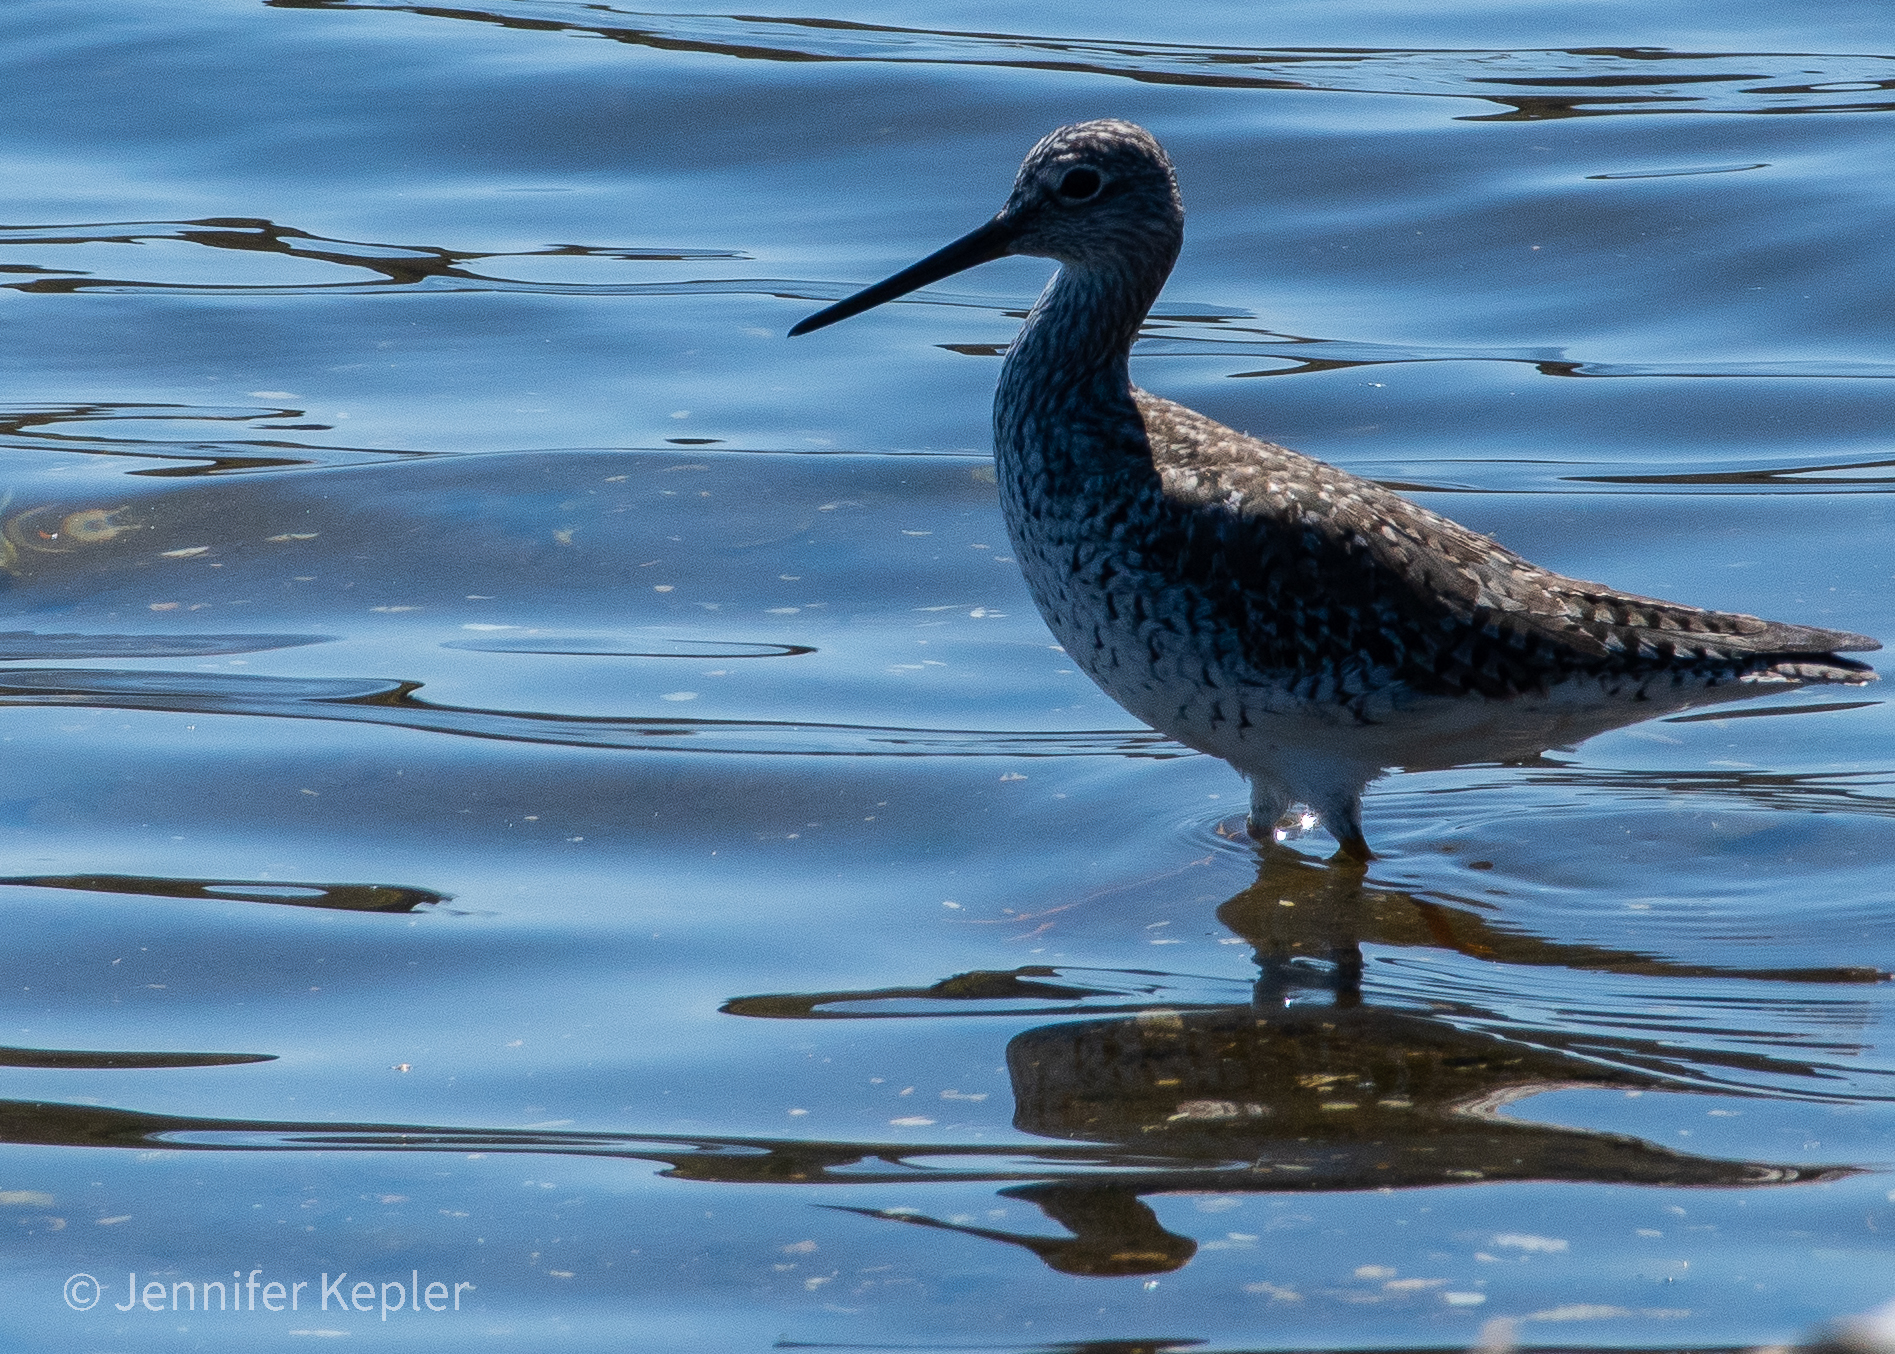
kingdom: Animalia
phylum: Chordata
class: Aves
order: Charadriiformes
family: Scolopacidae
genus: Tringa
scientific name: Tringa melanoleuca
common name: Greater yellowlegs
